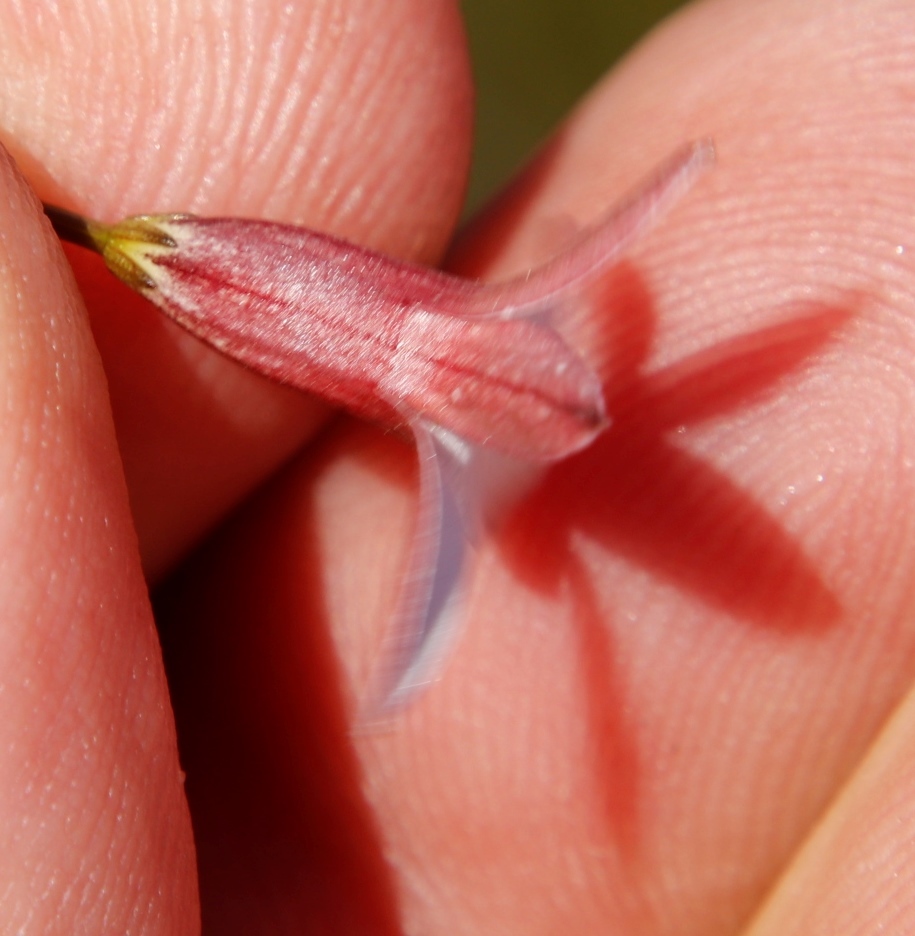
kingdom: Plantae
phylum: Tracheophyta
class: Magnoliopsida
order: Asterales
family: Campanulaceae
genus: Prismatocarpus
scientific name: Prismatocarpus fruticosus
